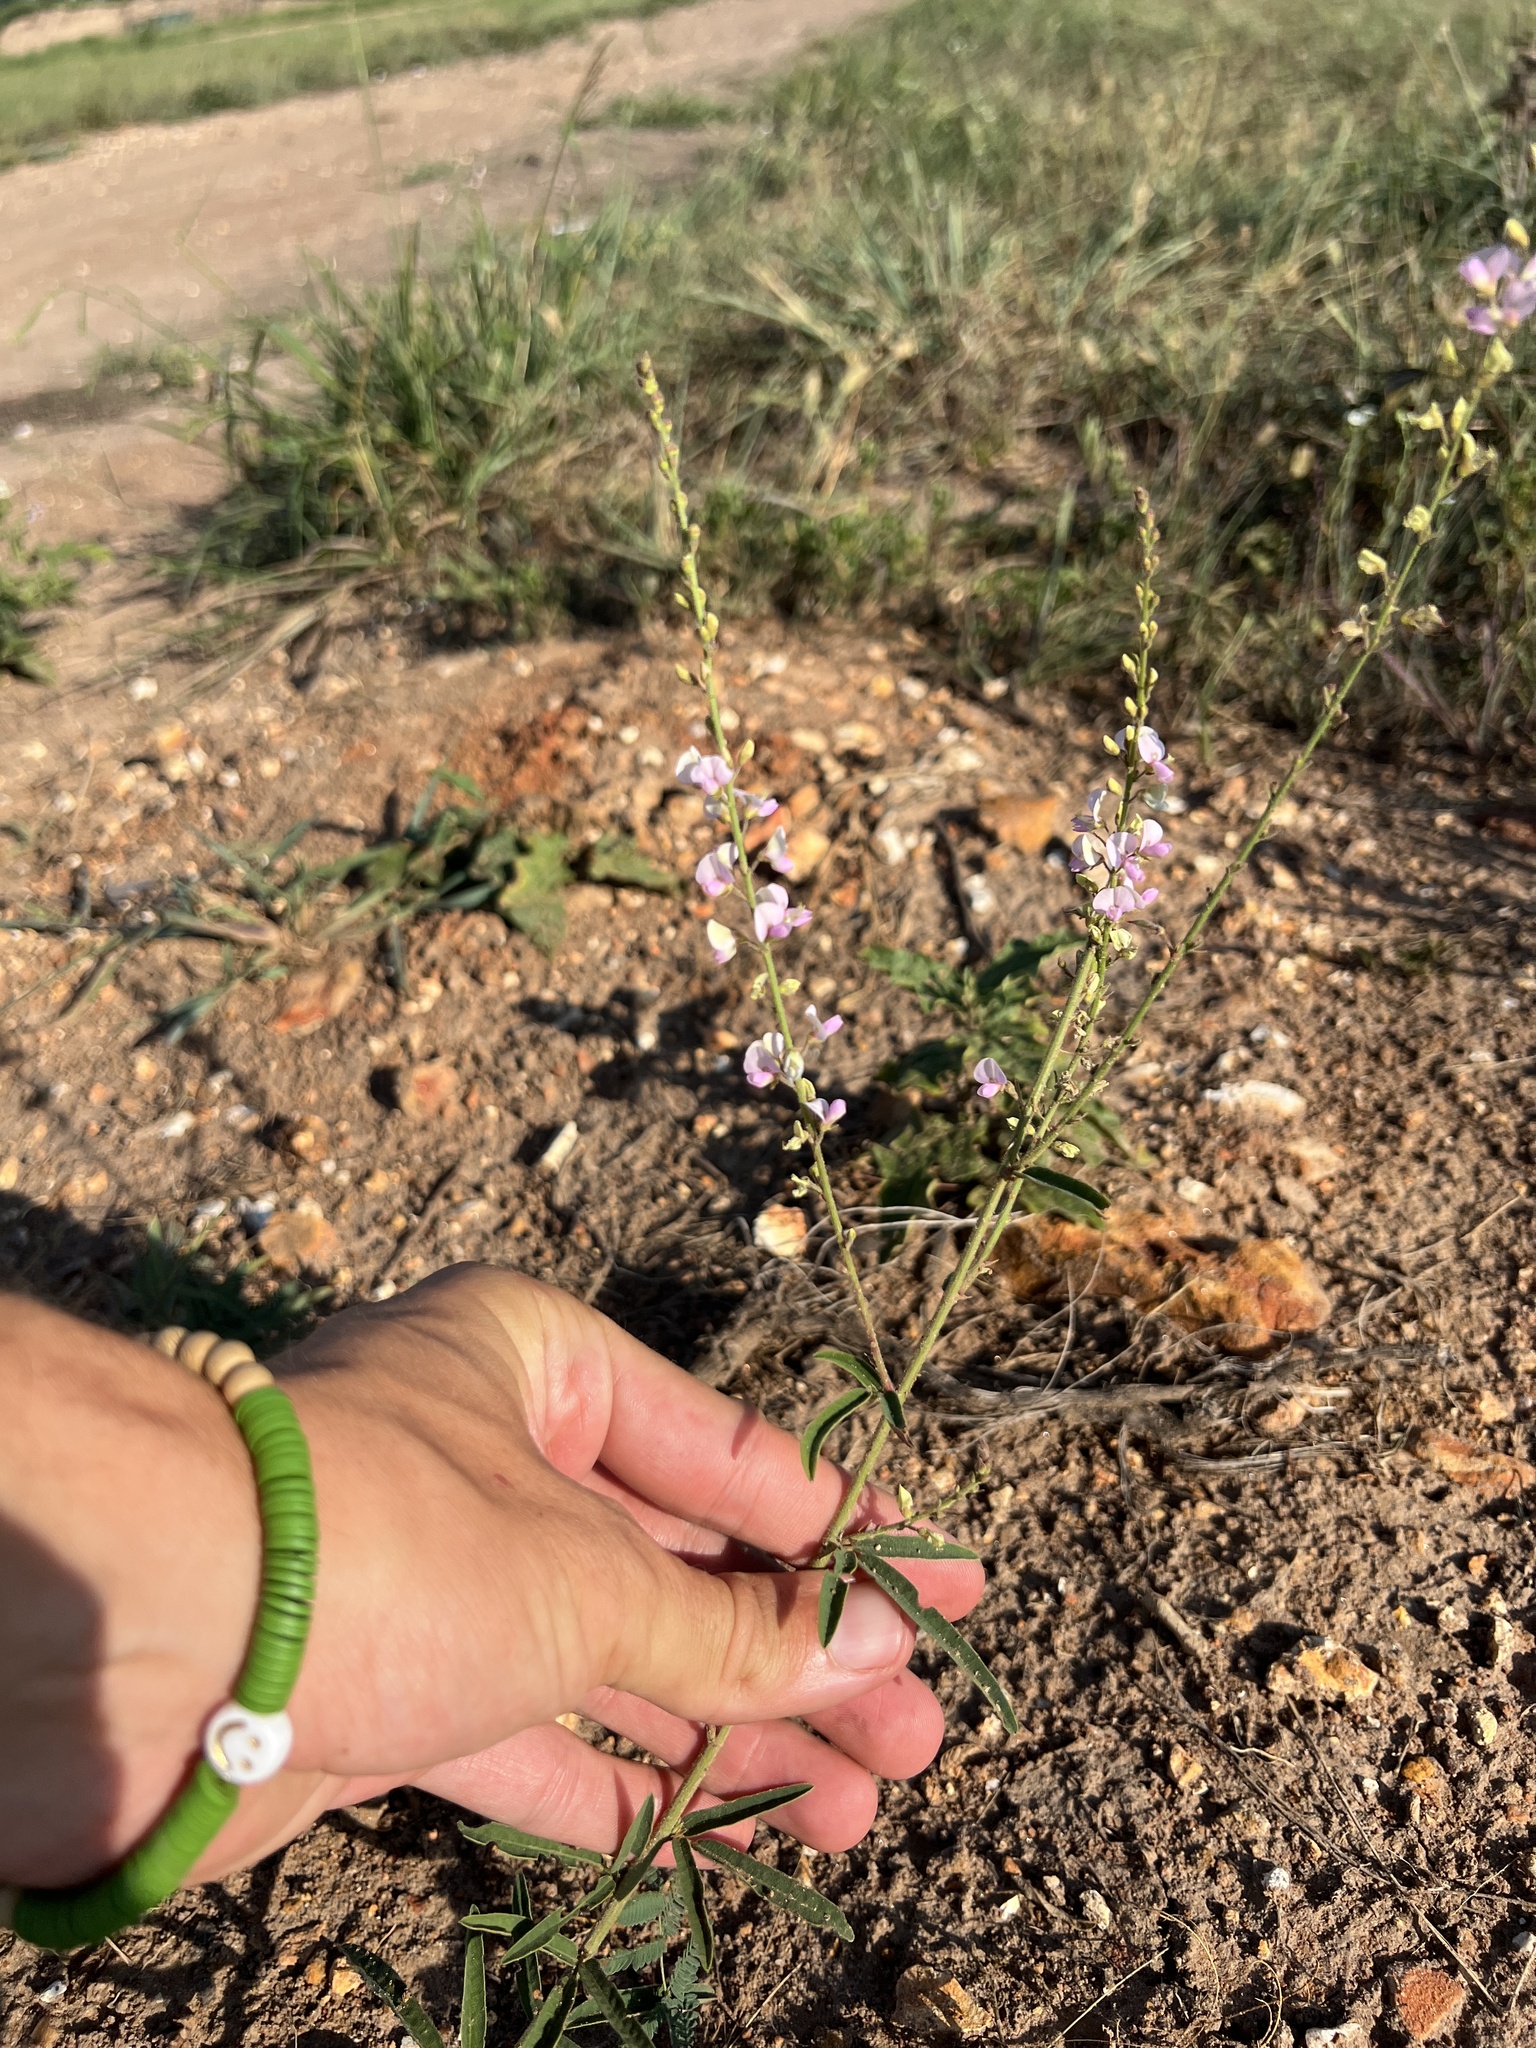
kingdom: Plantae
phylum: Tracheophyta
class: Magnoliopsida
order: Fabales
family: Fabaceae
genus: Desmodium
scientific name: Desmodium sessilifolium
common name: Sessile tick-clover
